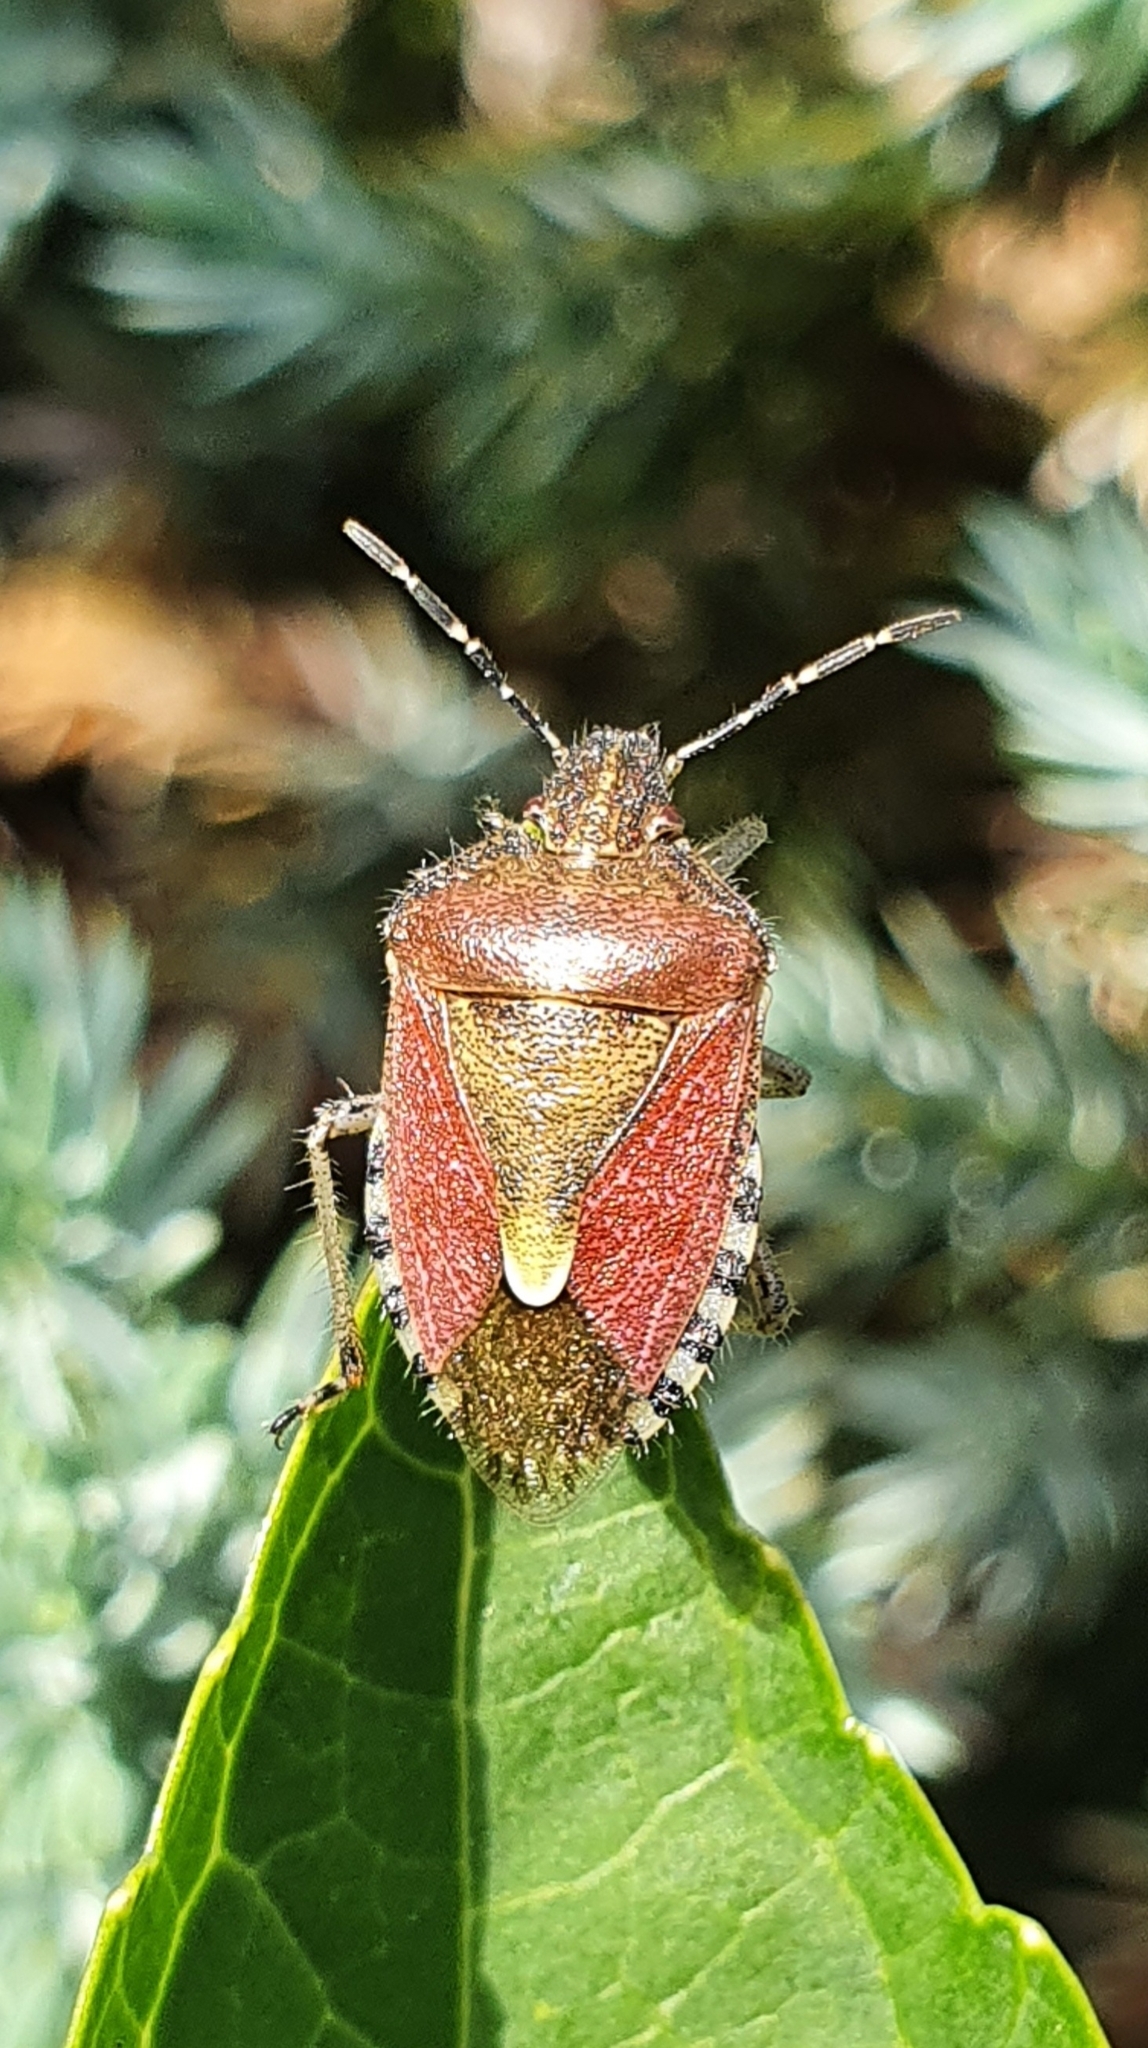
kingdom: Animalia
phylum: Arthropoda
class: Insecta
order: Hemiptera
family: Pentatomidae
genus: Dolycoris
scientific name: Dolycoris baccarum
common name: Sloe bug
